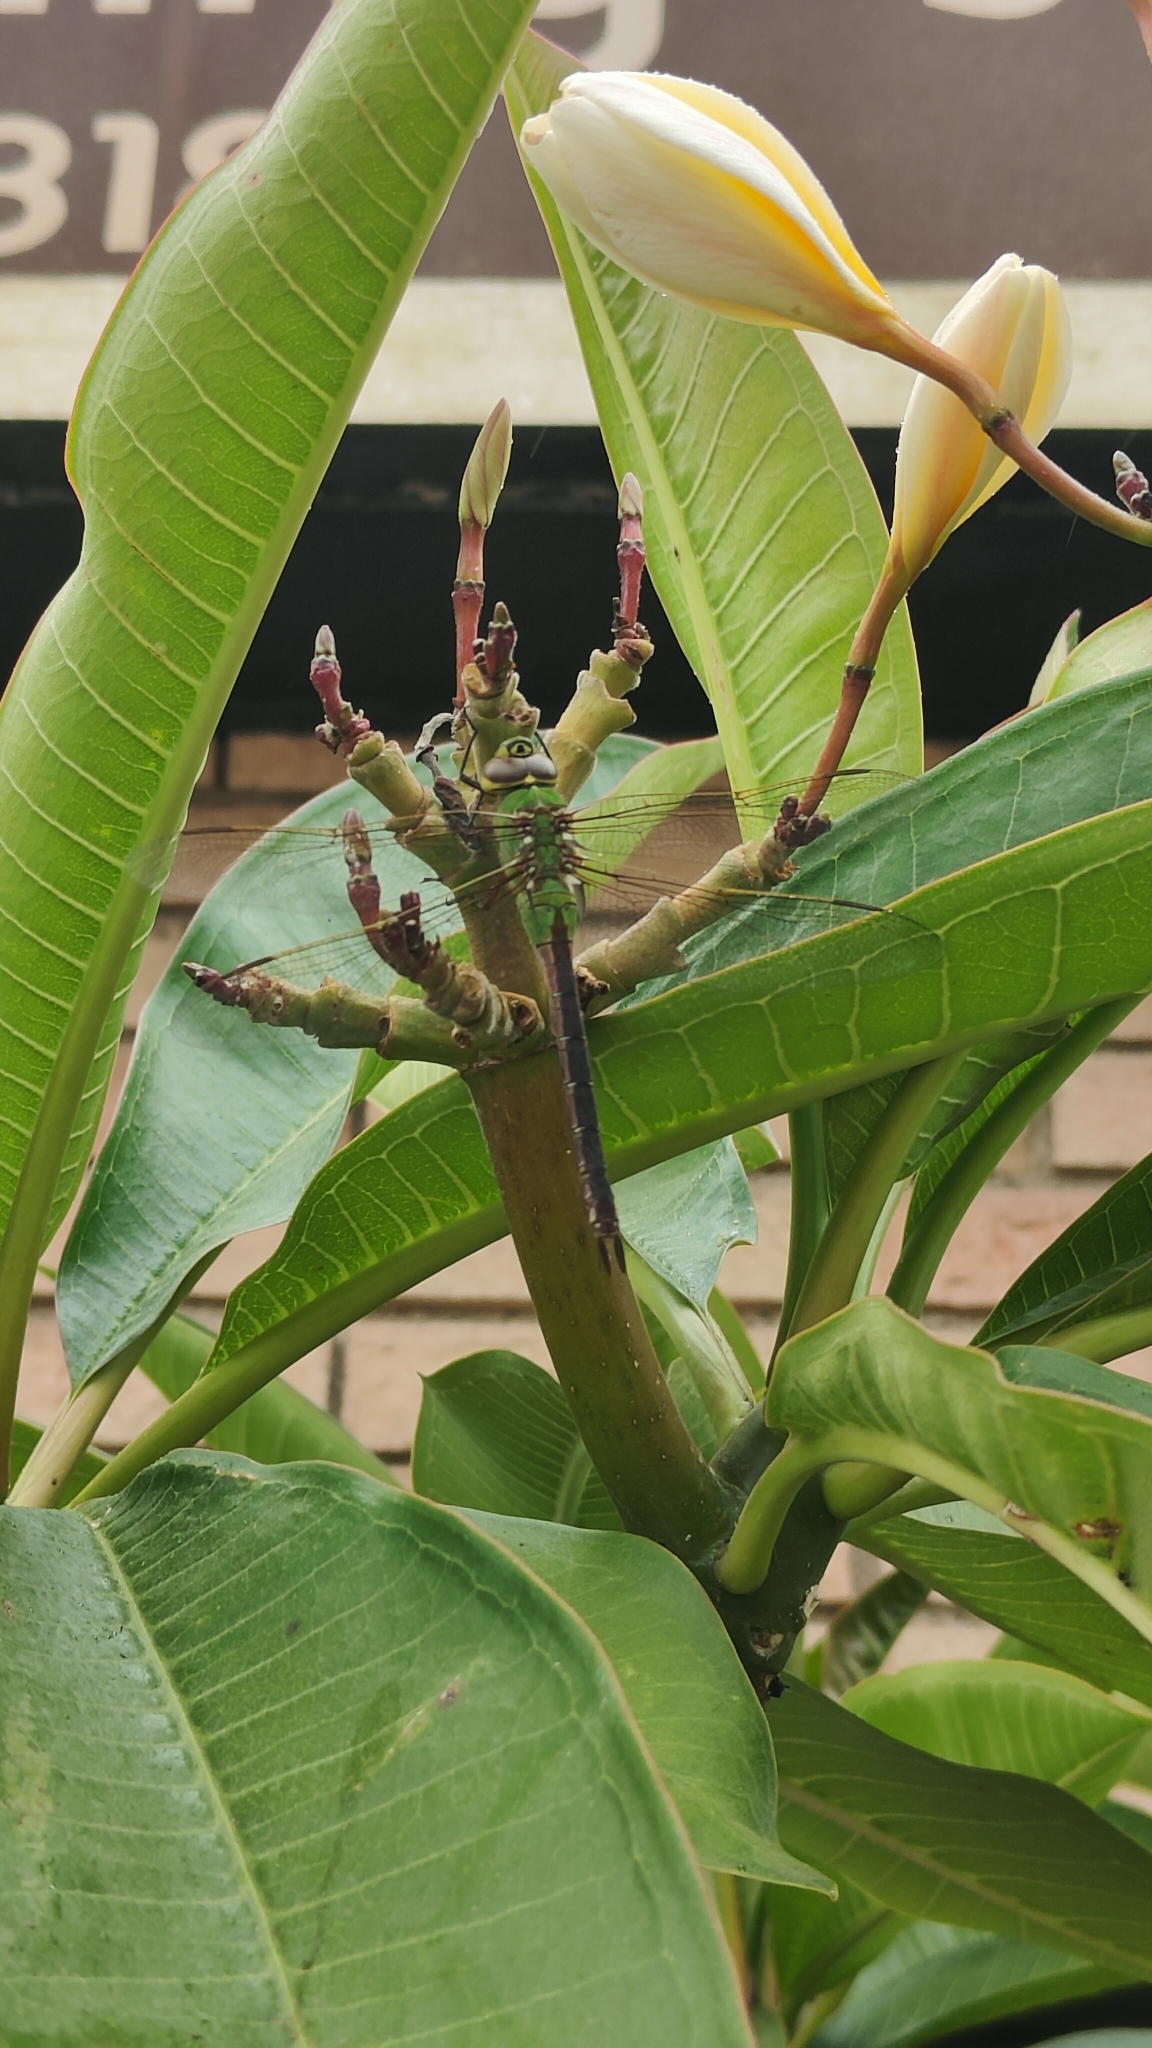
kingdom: Animalia
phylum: Arthropoda
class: Insecta
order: Odonata
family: Aeshnidae
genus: Anax
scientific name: Anax junius
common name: Common green darner
